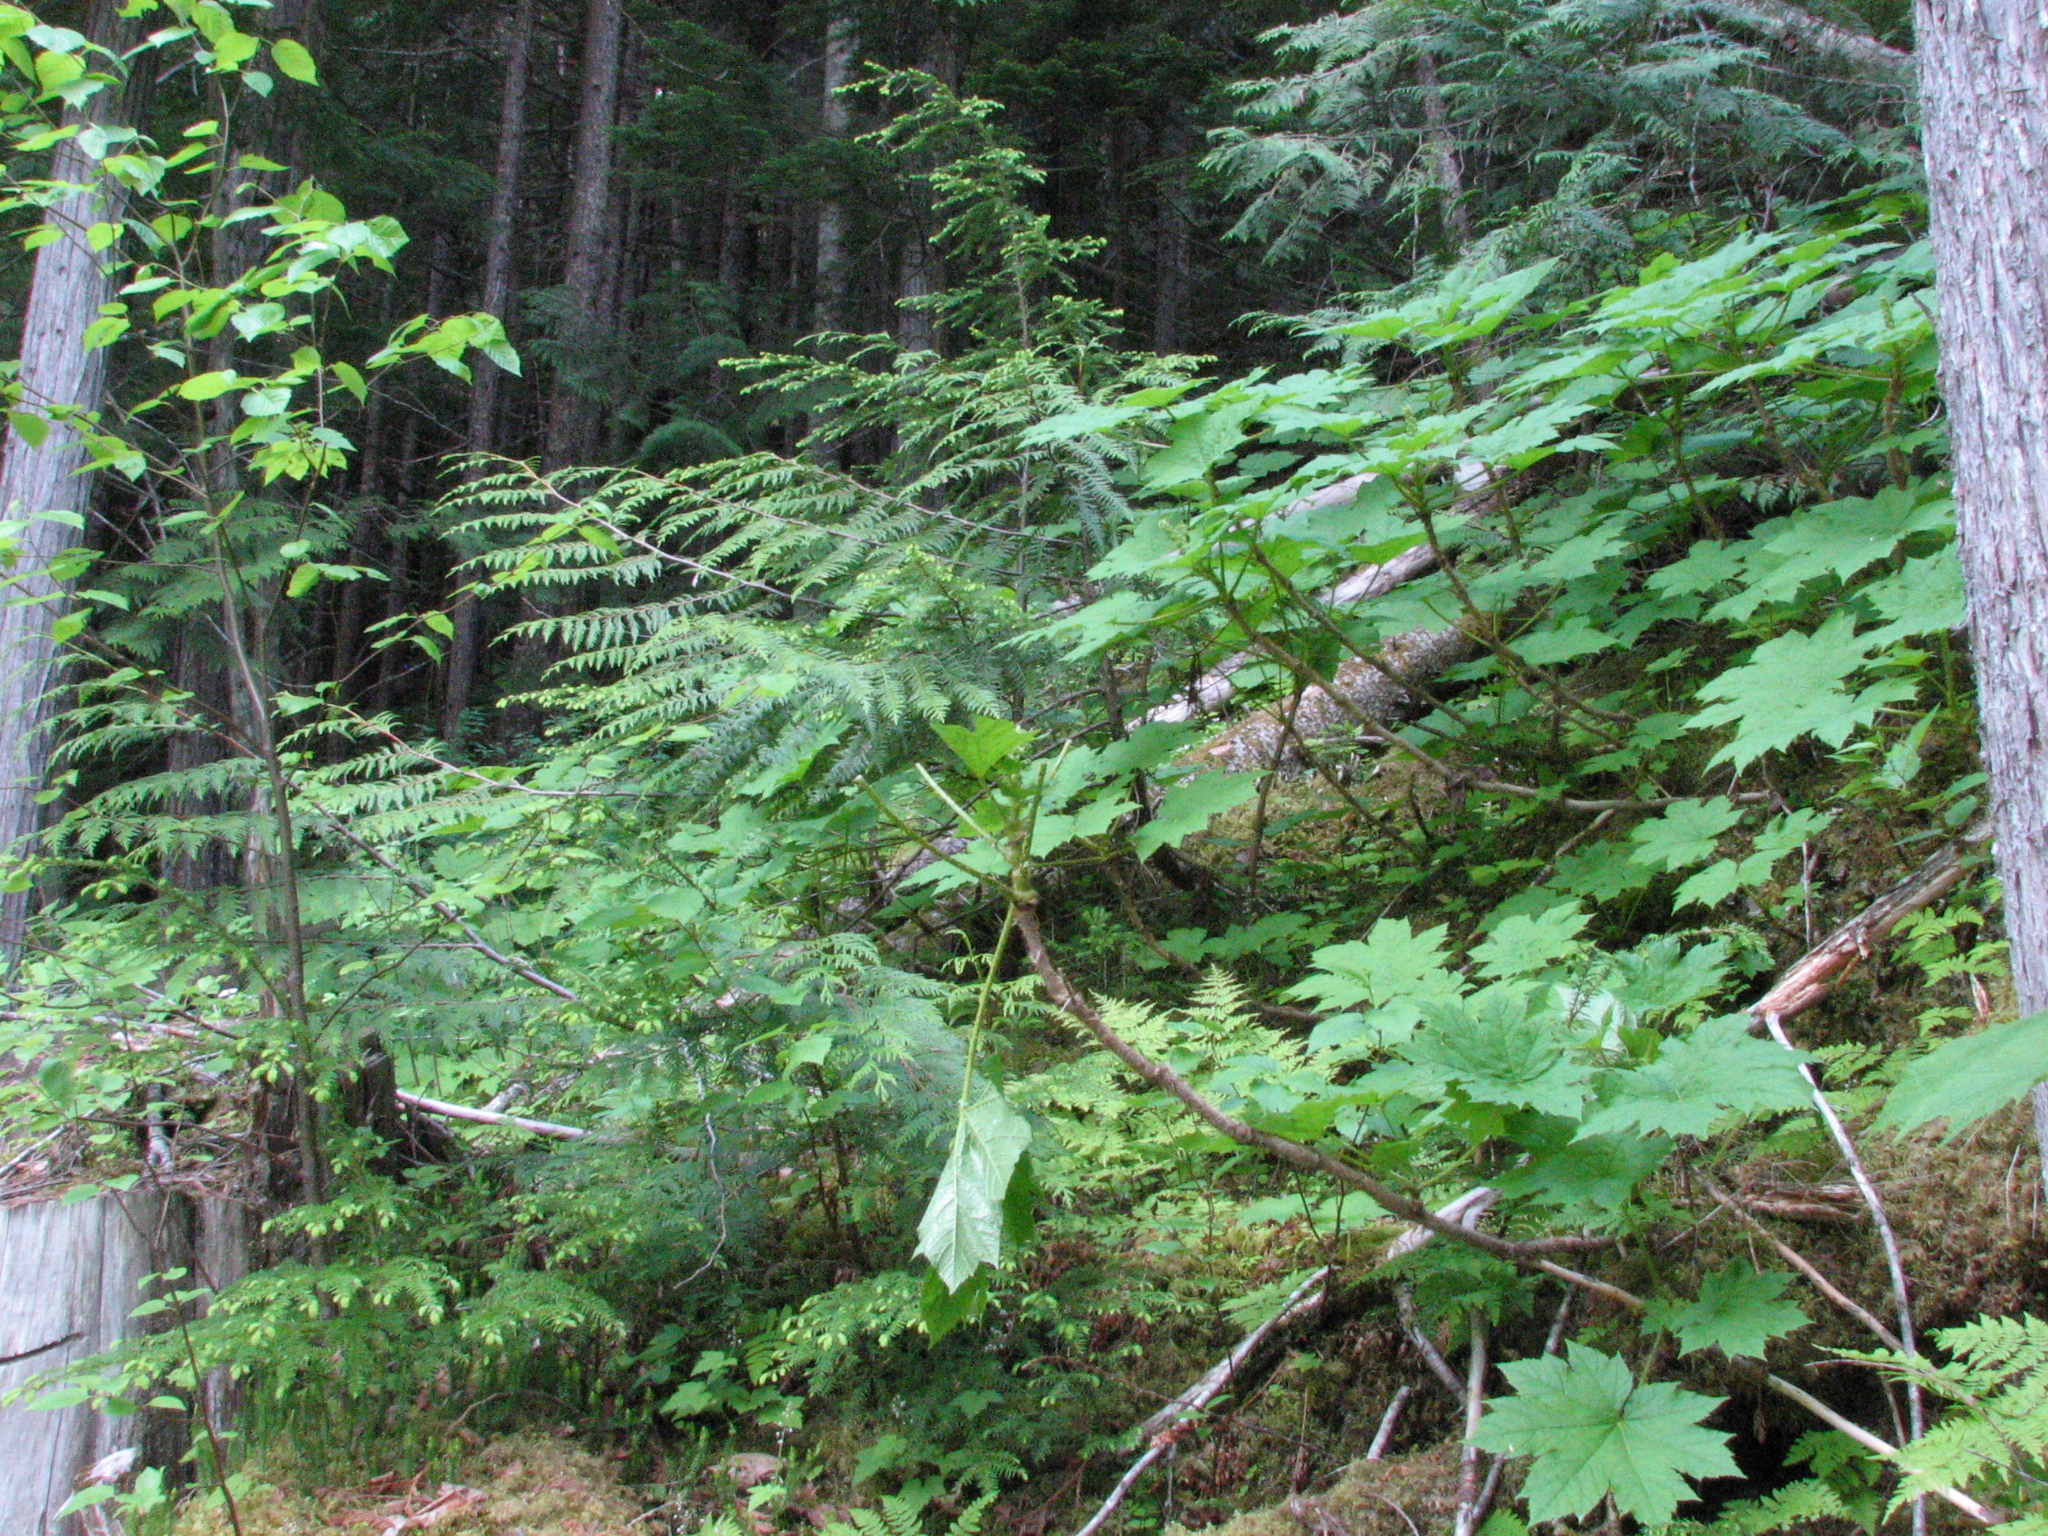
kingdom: Plantae
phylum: Tracheophyta
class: Magnoliopsida
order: Apiales
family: Araliaceae
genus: Oplopanax
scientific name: Oplopanax horridus
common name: Devil's walking-stick
